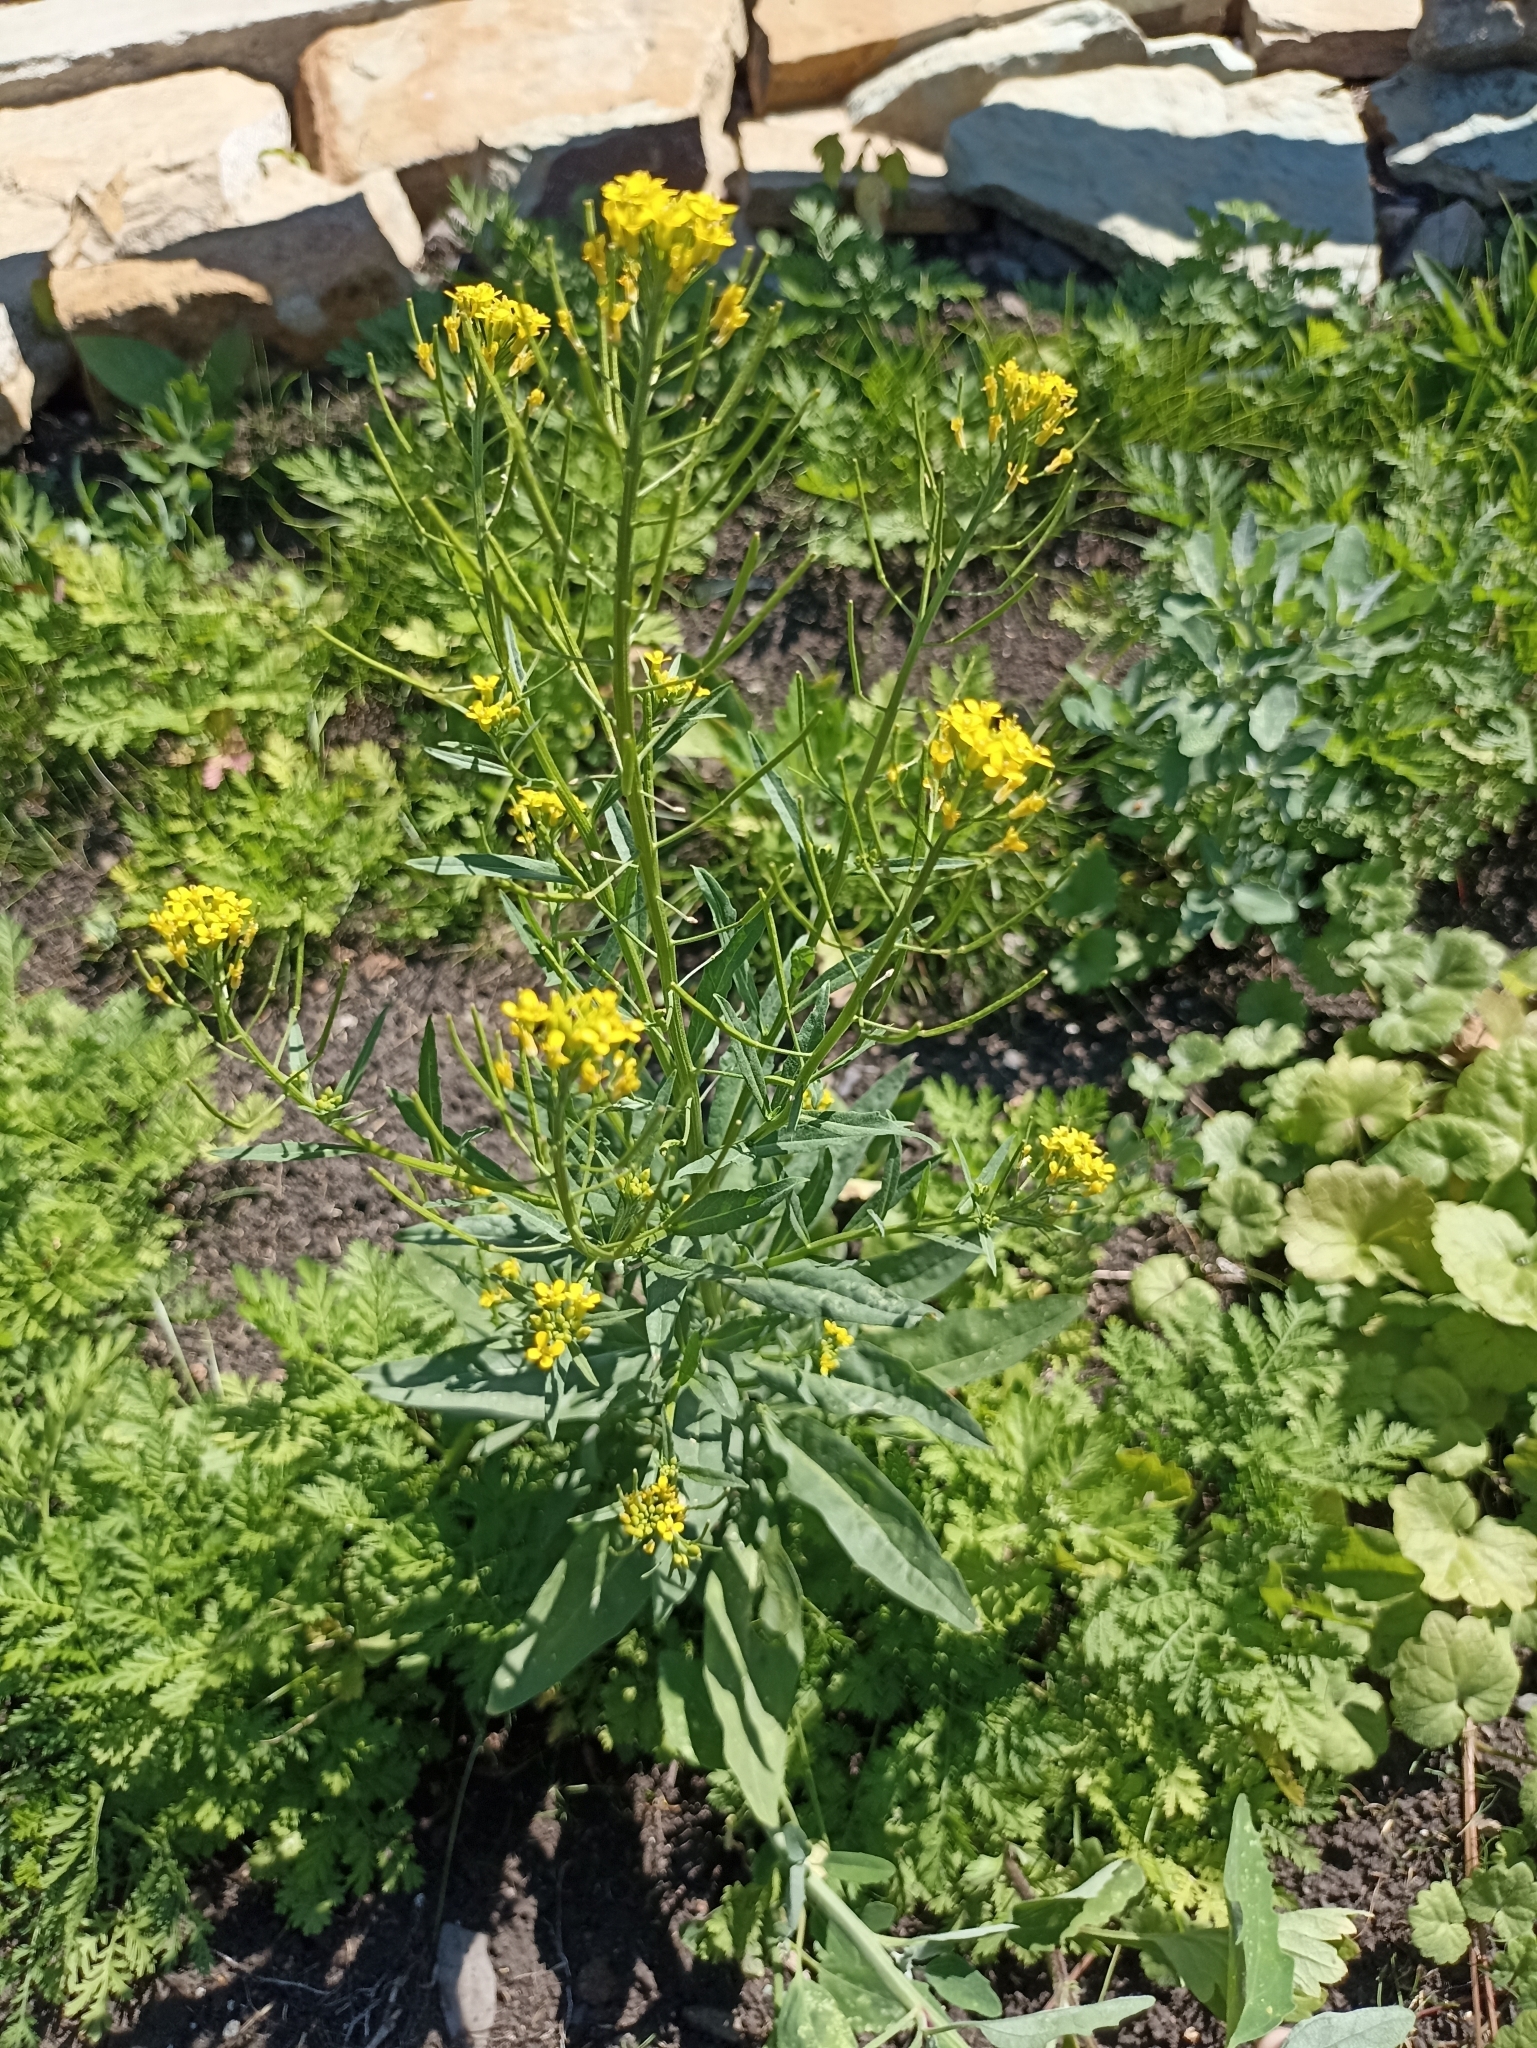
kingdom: Plantae
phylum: Tracheophyta
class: Magnoliopsida
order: Brassicales
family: Brassicaceae
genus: Erysimum
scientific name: Erysimum cheiranthoides
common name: Treacle mustard
